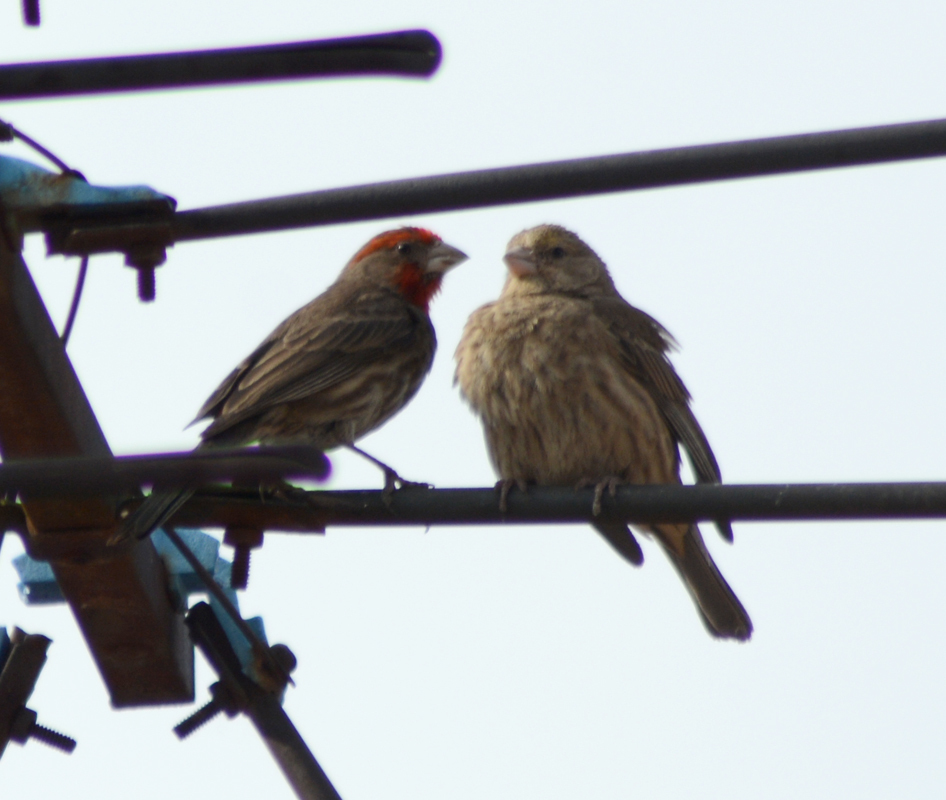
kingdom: Animalia
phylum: Chordata
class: Aves
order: Passeriformes
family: Fringillidae
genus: Haemorhous
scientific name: Haemorhous mexicanus
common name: House finch
